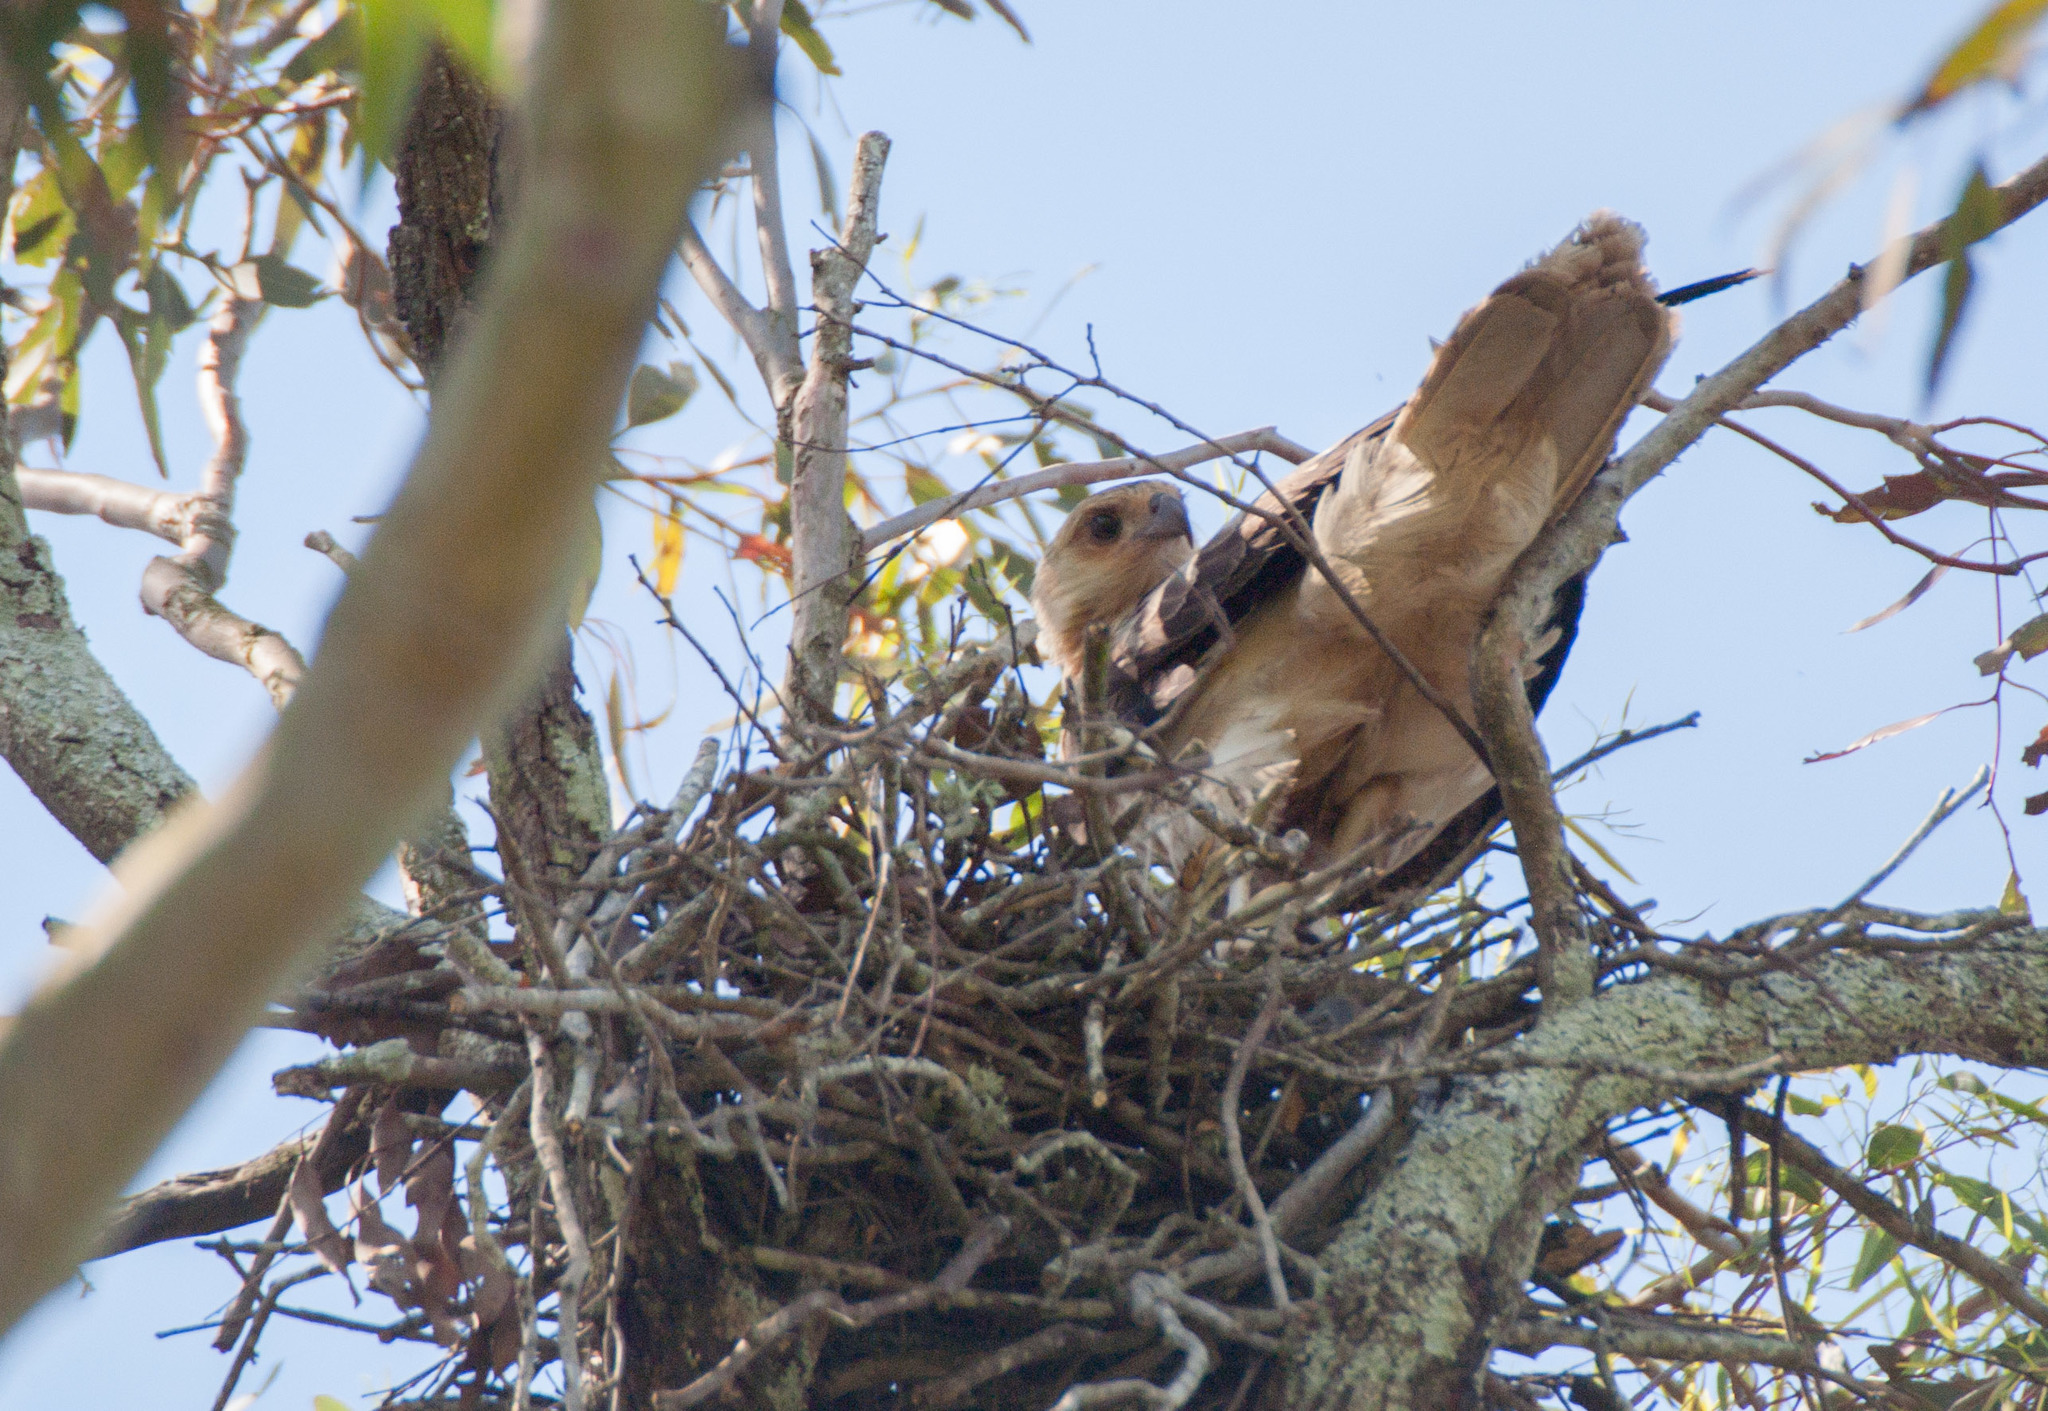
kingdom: Animalia
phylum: Chordata
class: Aves
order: Accipitriformes
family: Accipitridae
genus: Haliastur
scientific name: Haliastur sphenurus
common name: Whistling kite
